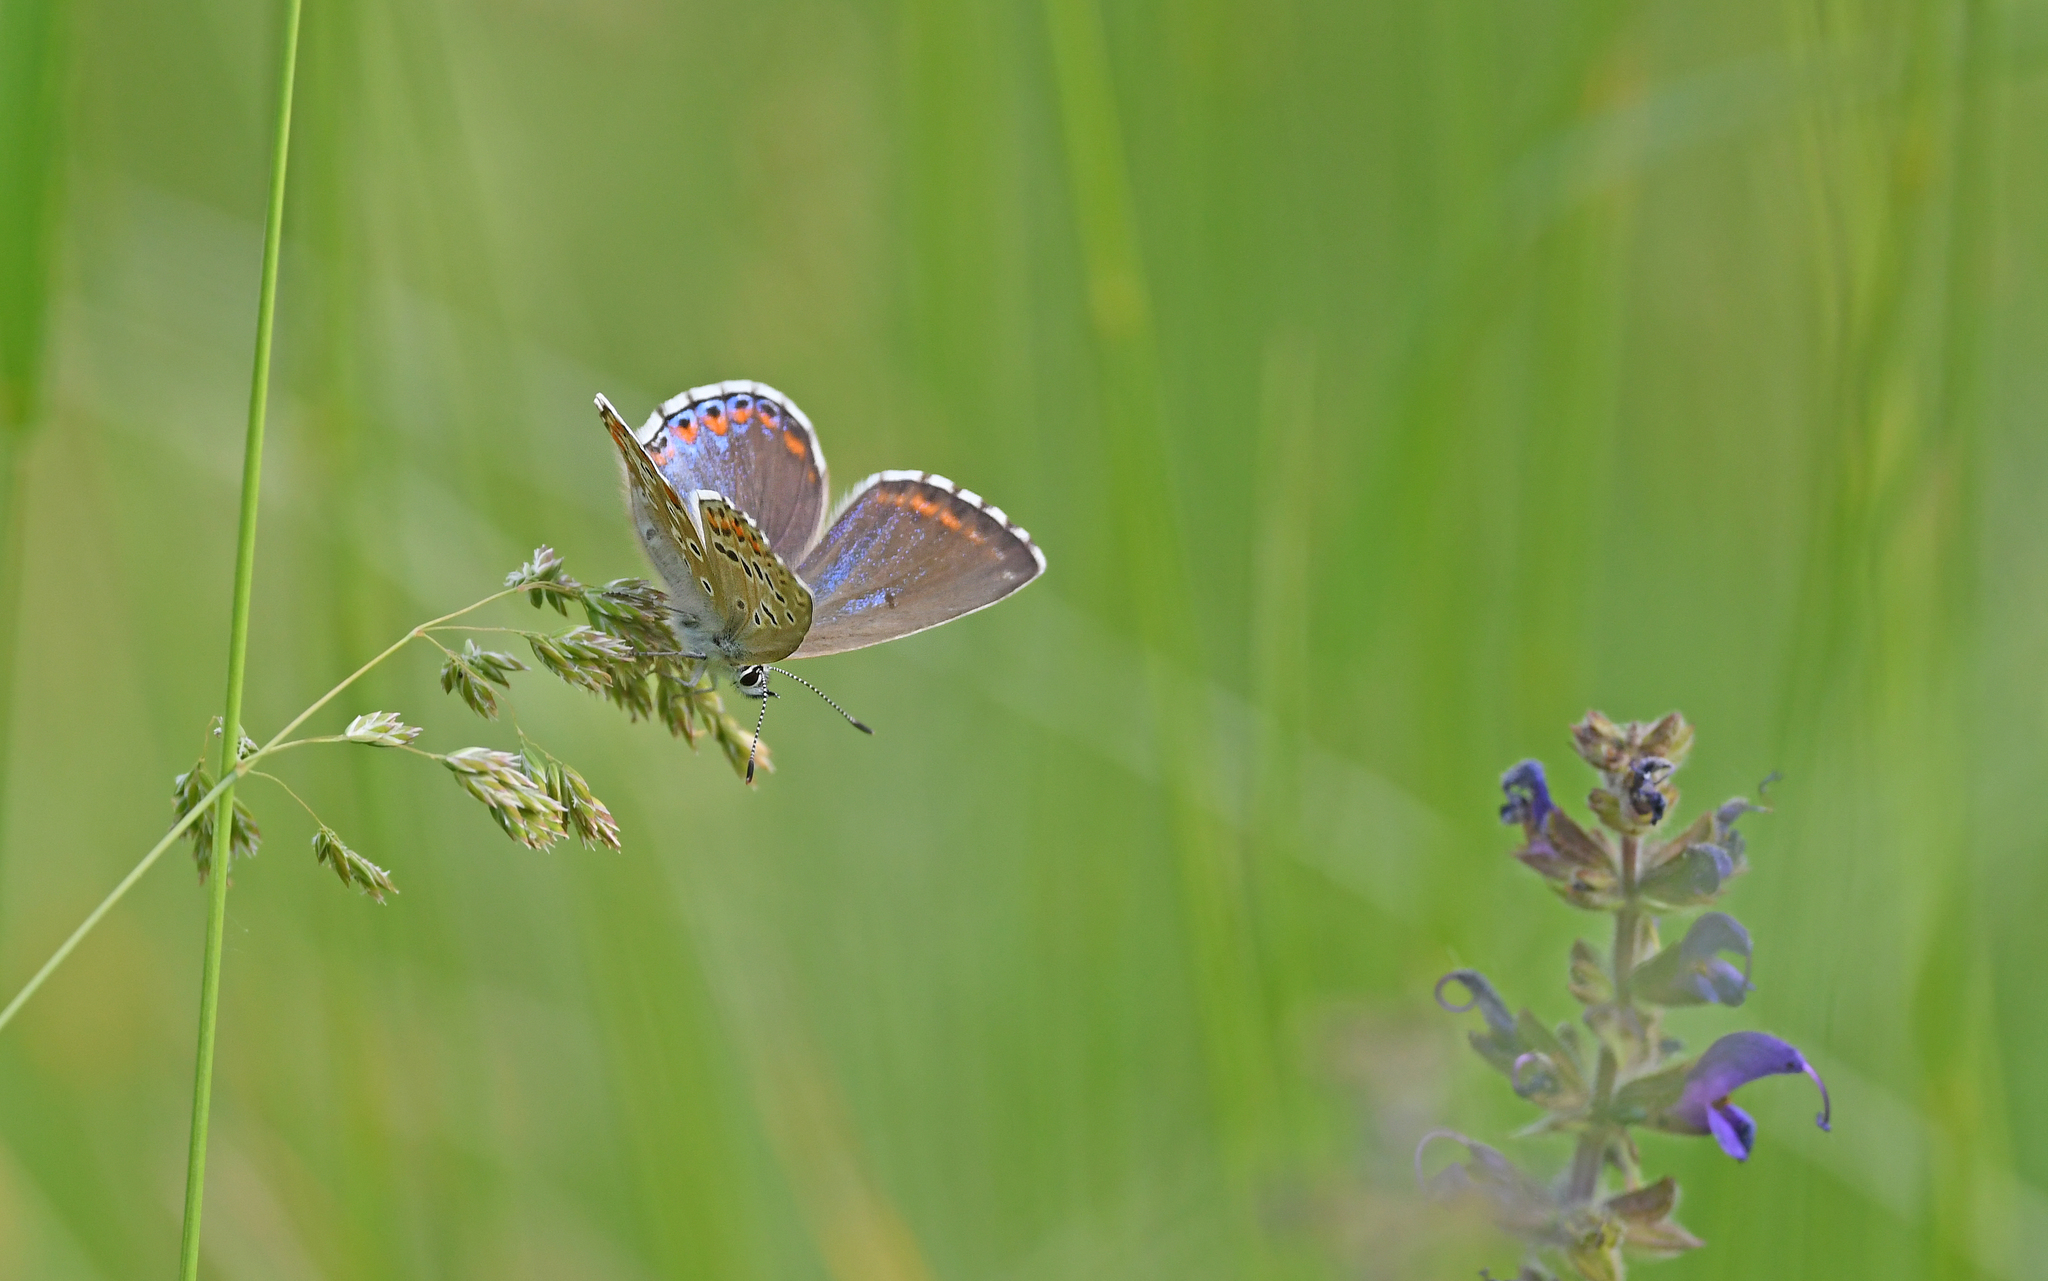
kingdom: Animalia
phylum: Arthropoda
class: Insecta
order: Lepidoptera
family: Lycaenidae
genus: Lysandra
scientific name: Lysandra bellargus
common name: Adonis blue
